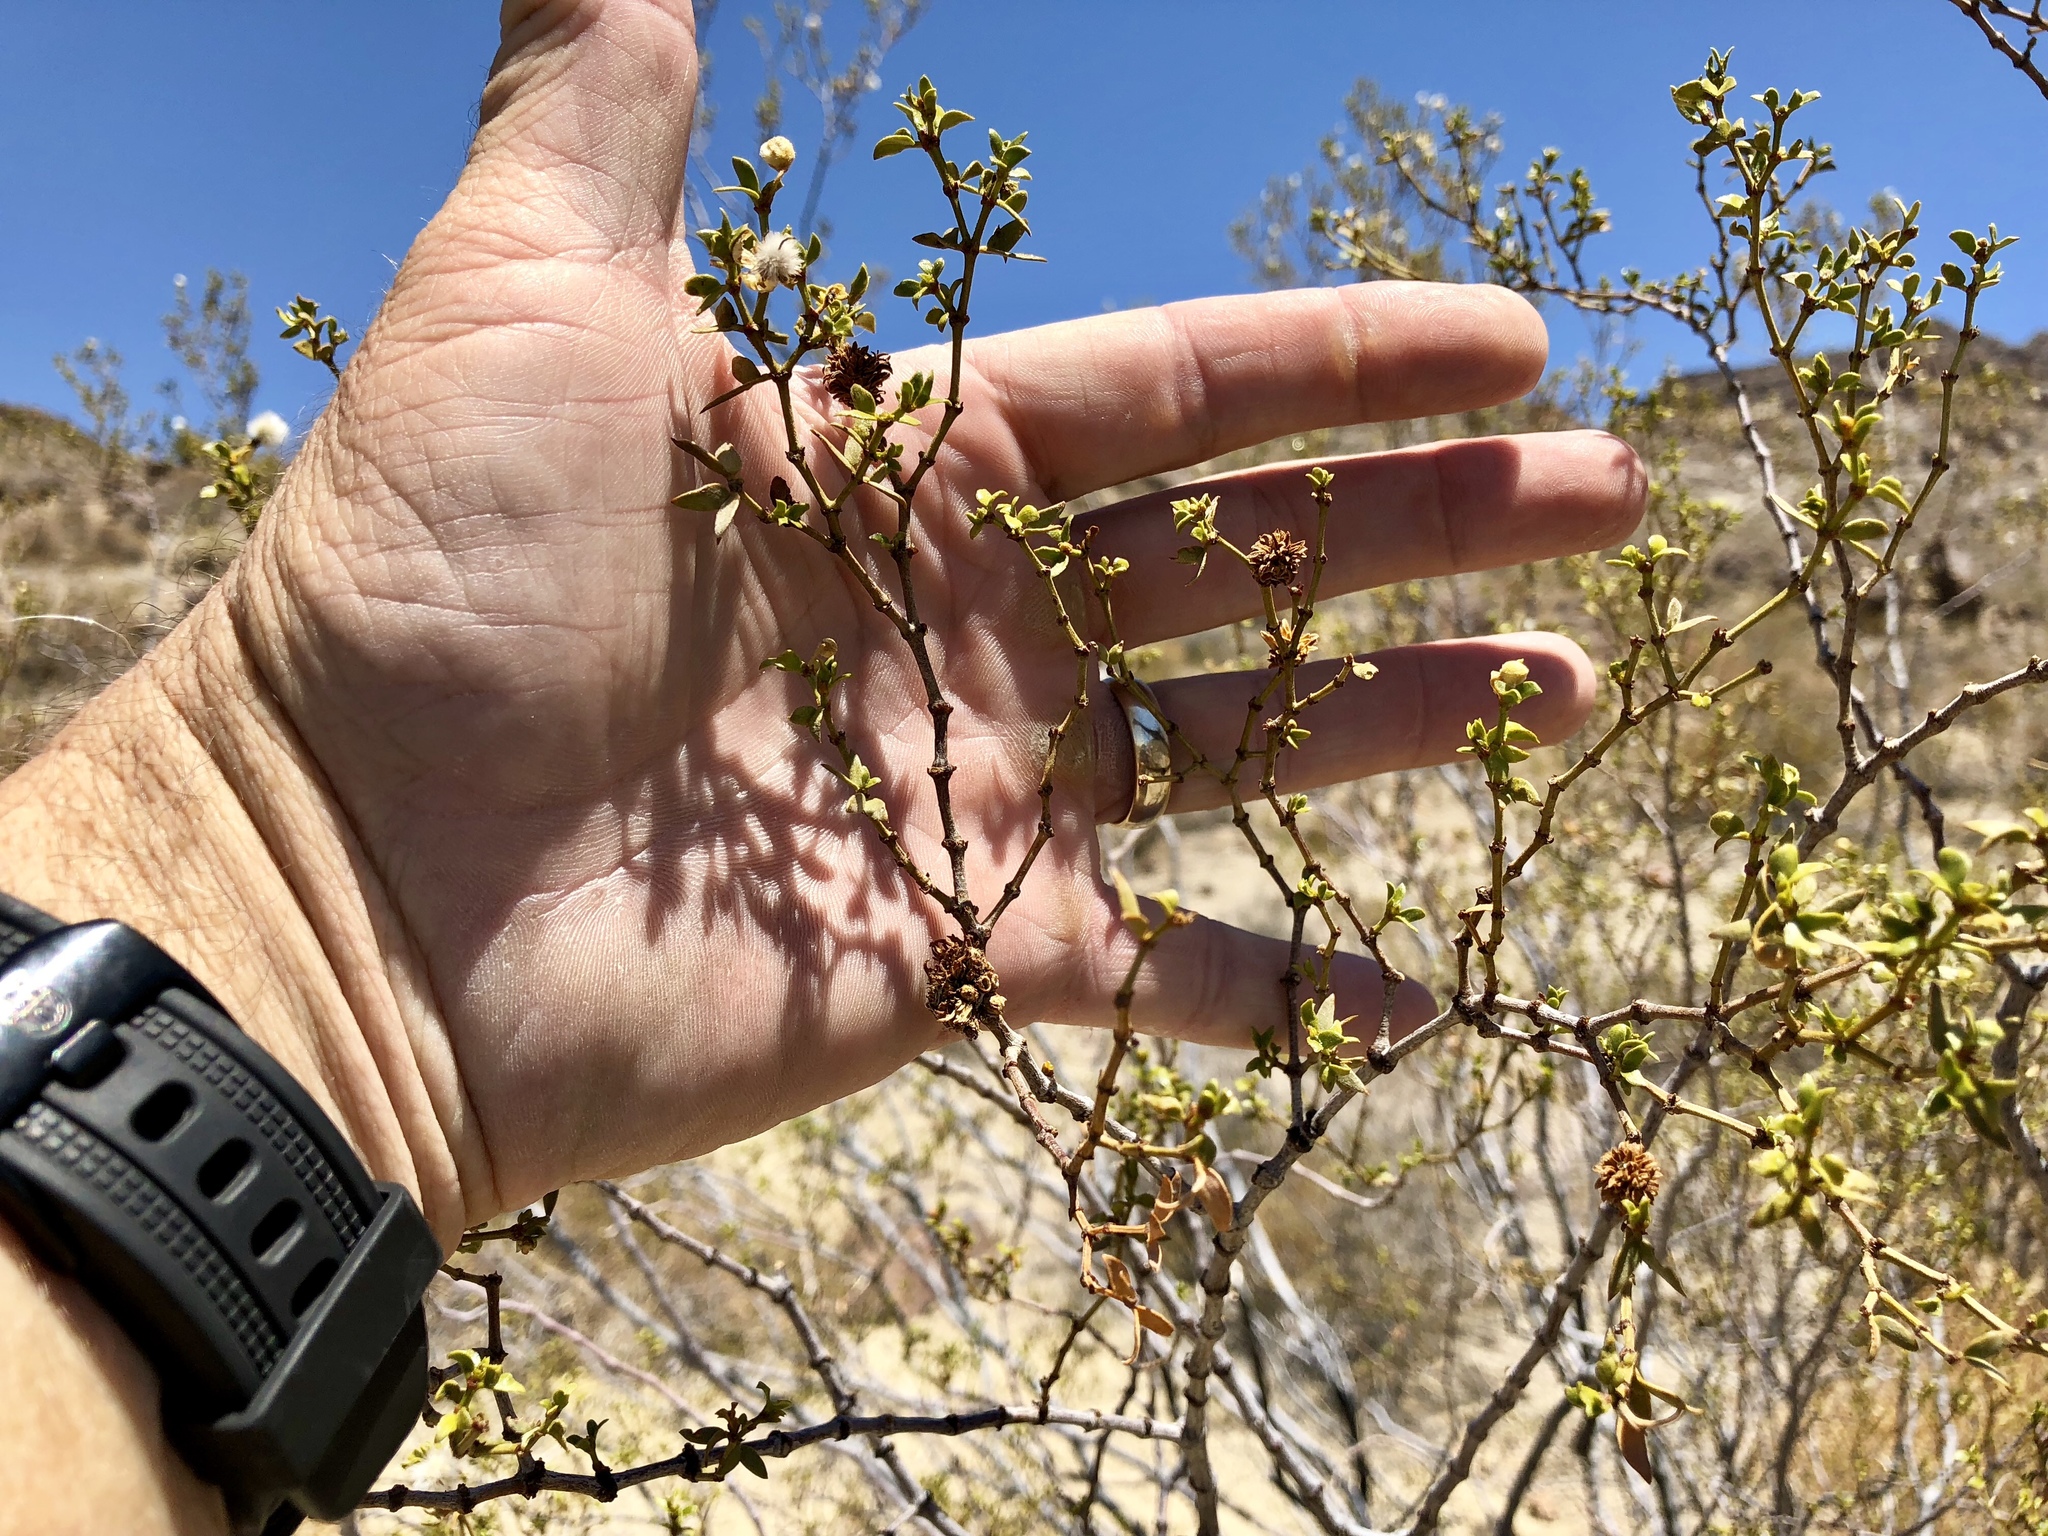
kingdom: Animalia
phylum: Arthropoda
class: Insecta
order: Diptera
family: Cecidomyiidae
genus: Asphondylia
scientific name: Asphondylia rosetta
